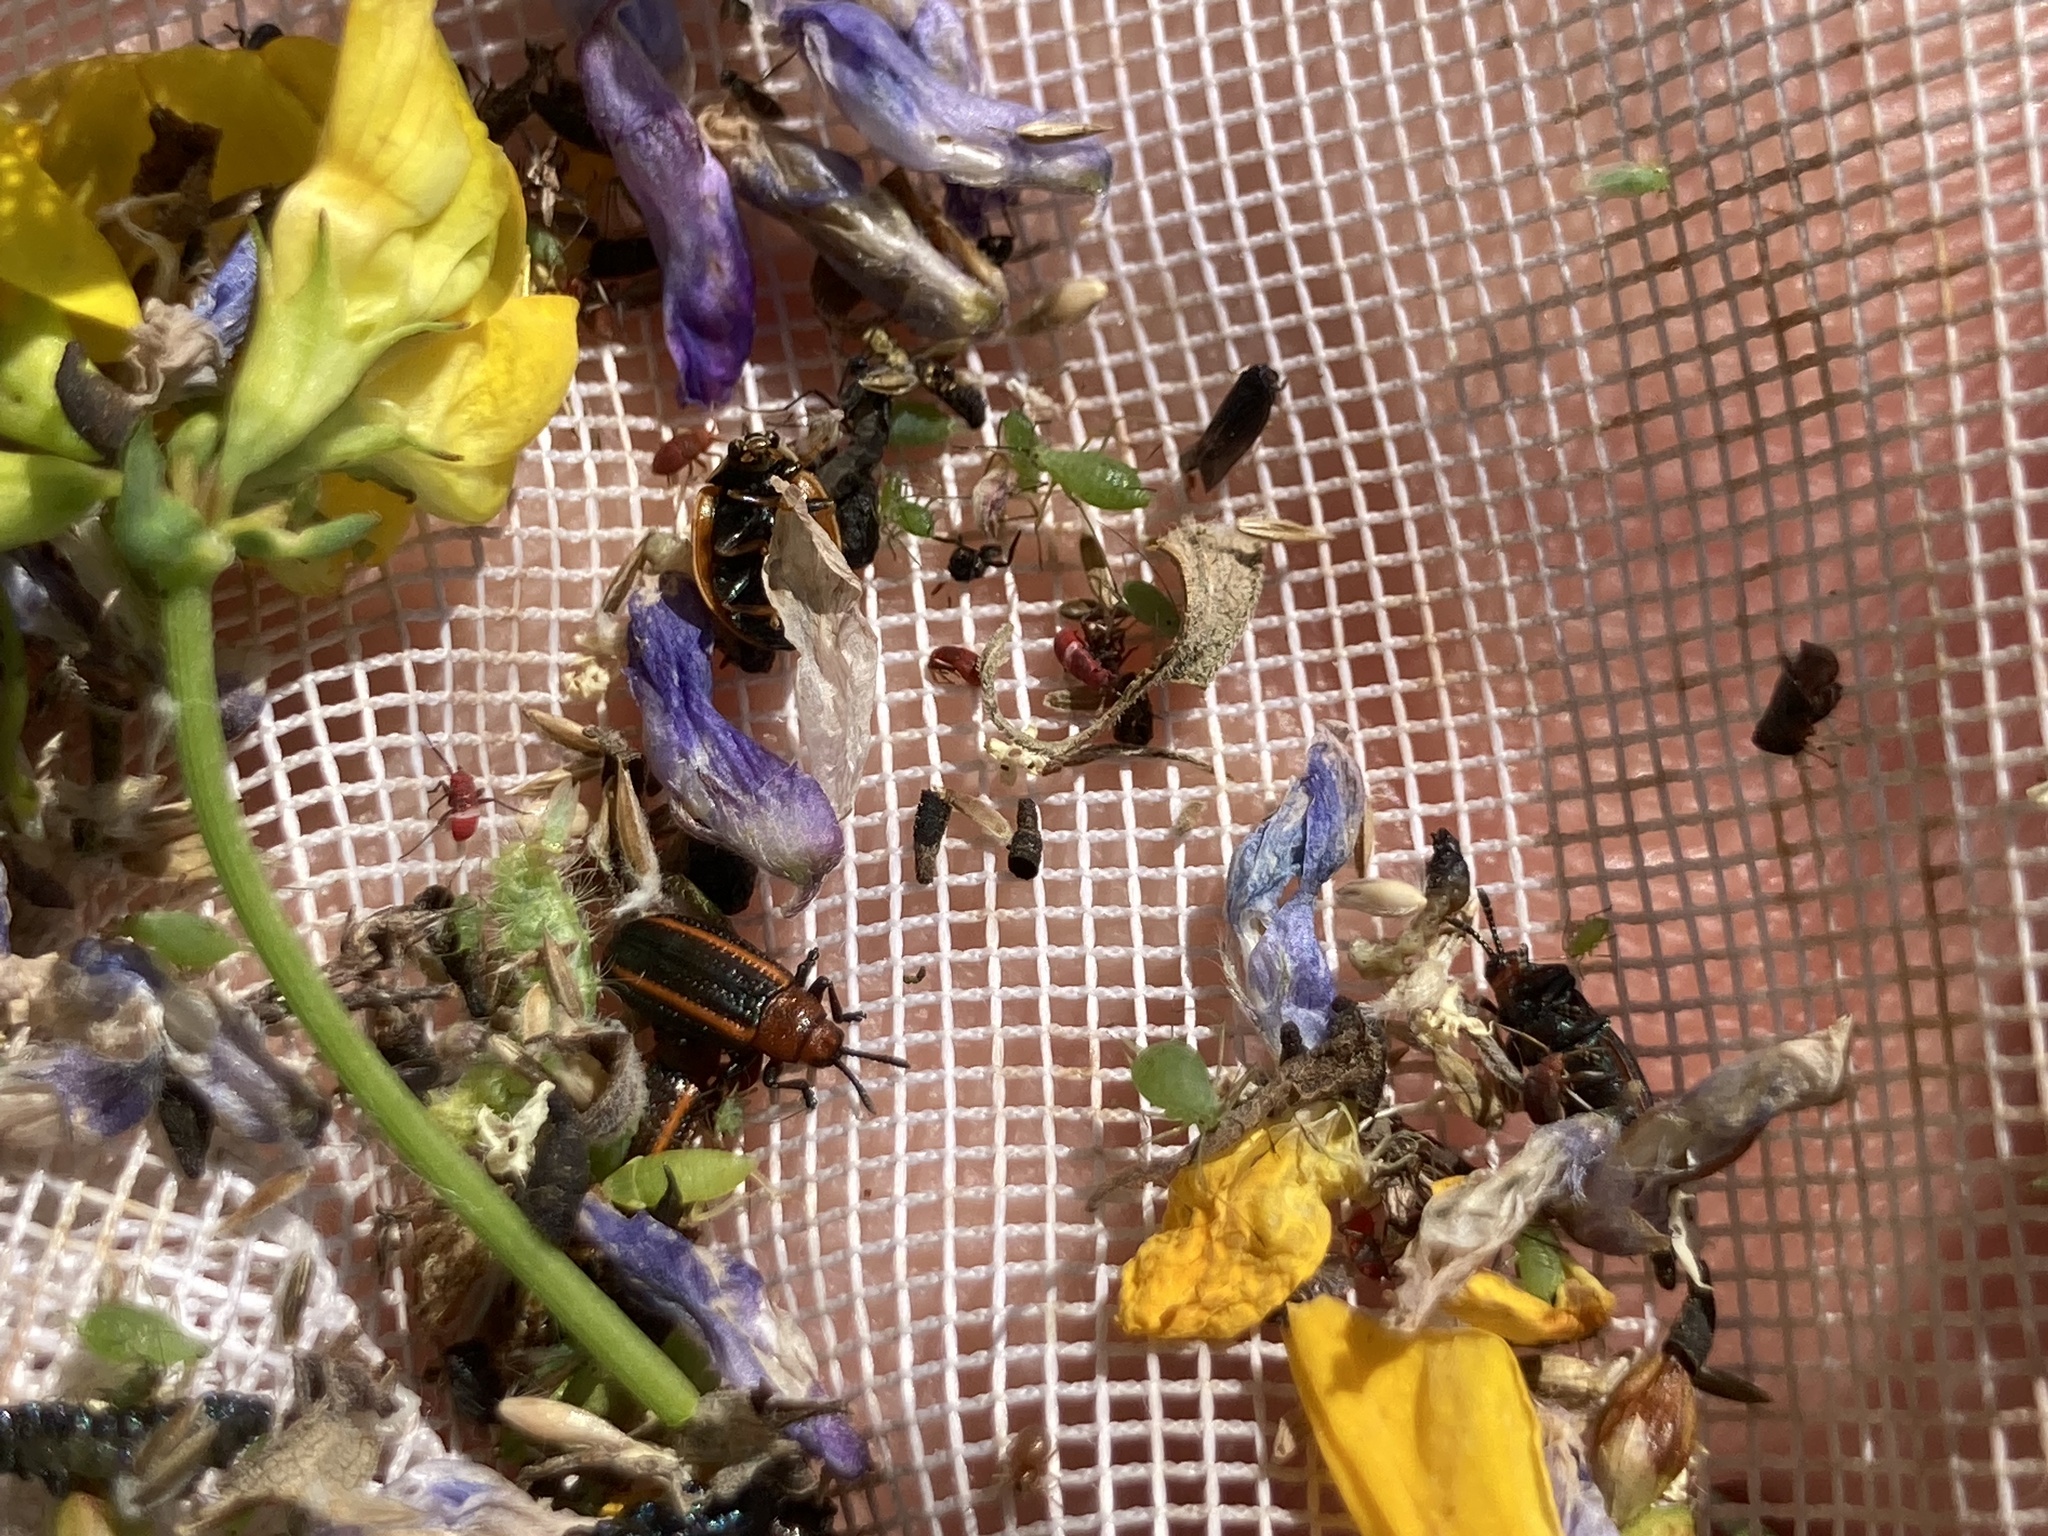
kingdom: Animalia
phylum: Arthropoda
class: Insecta
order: Coleoptera
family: Chrysomelidae
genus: Microrhopala
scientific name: Microrhopala vittata
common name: Goldenrod leaf miner beetle
